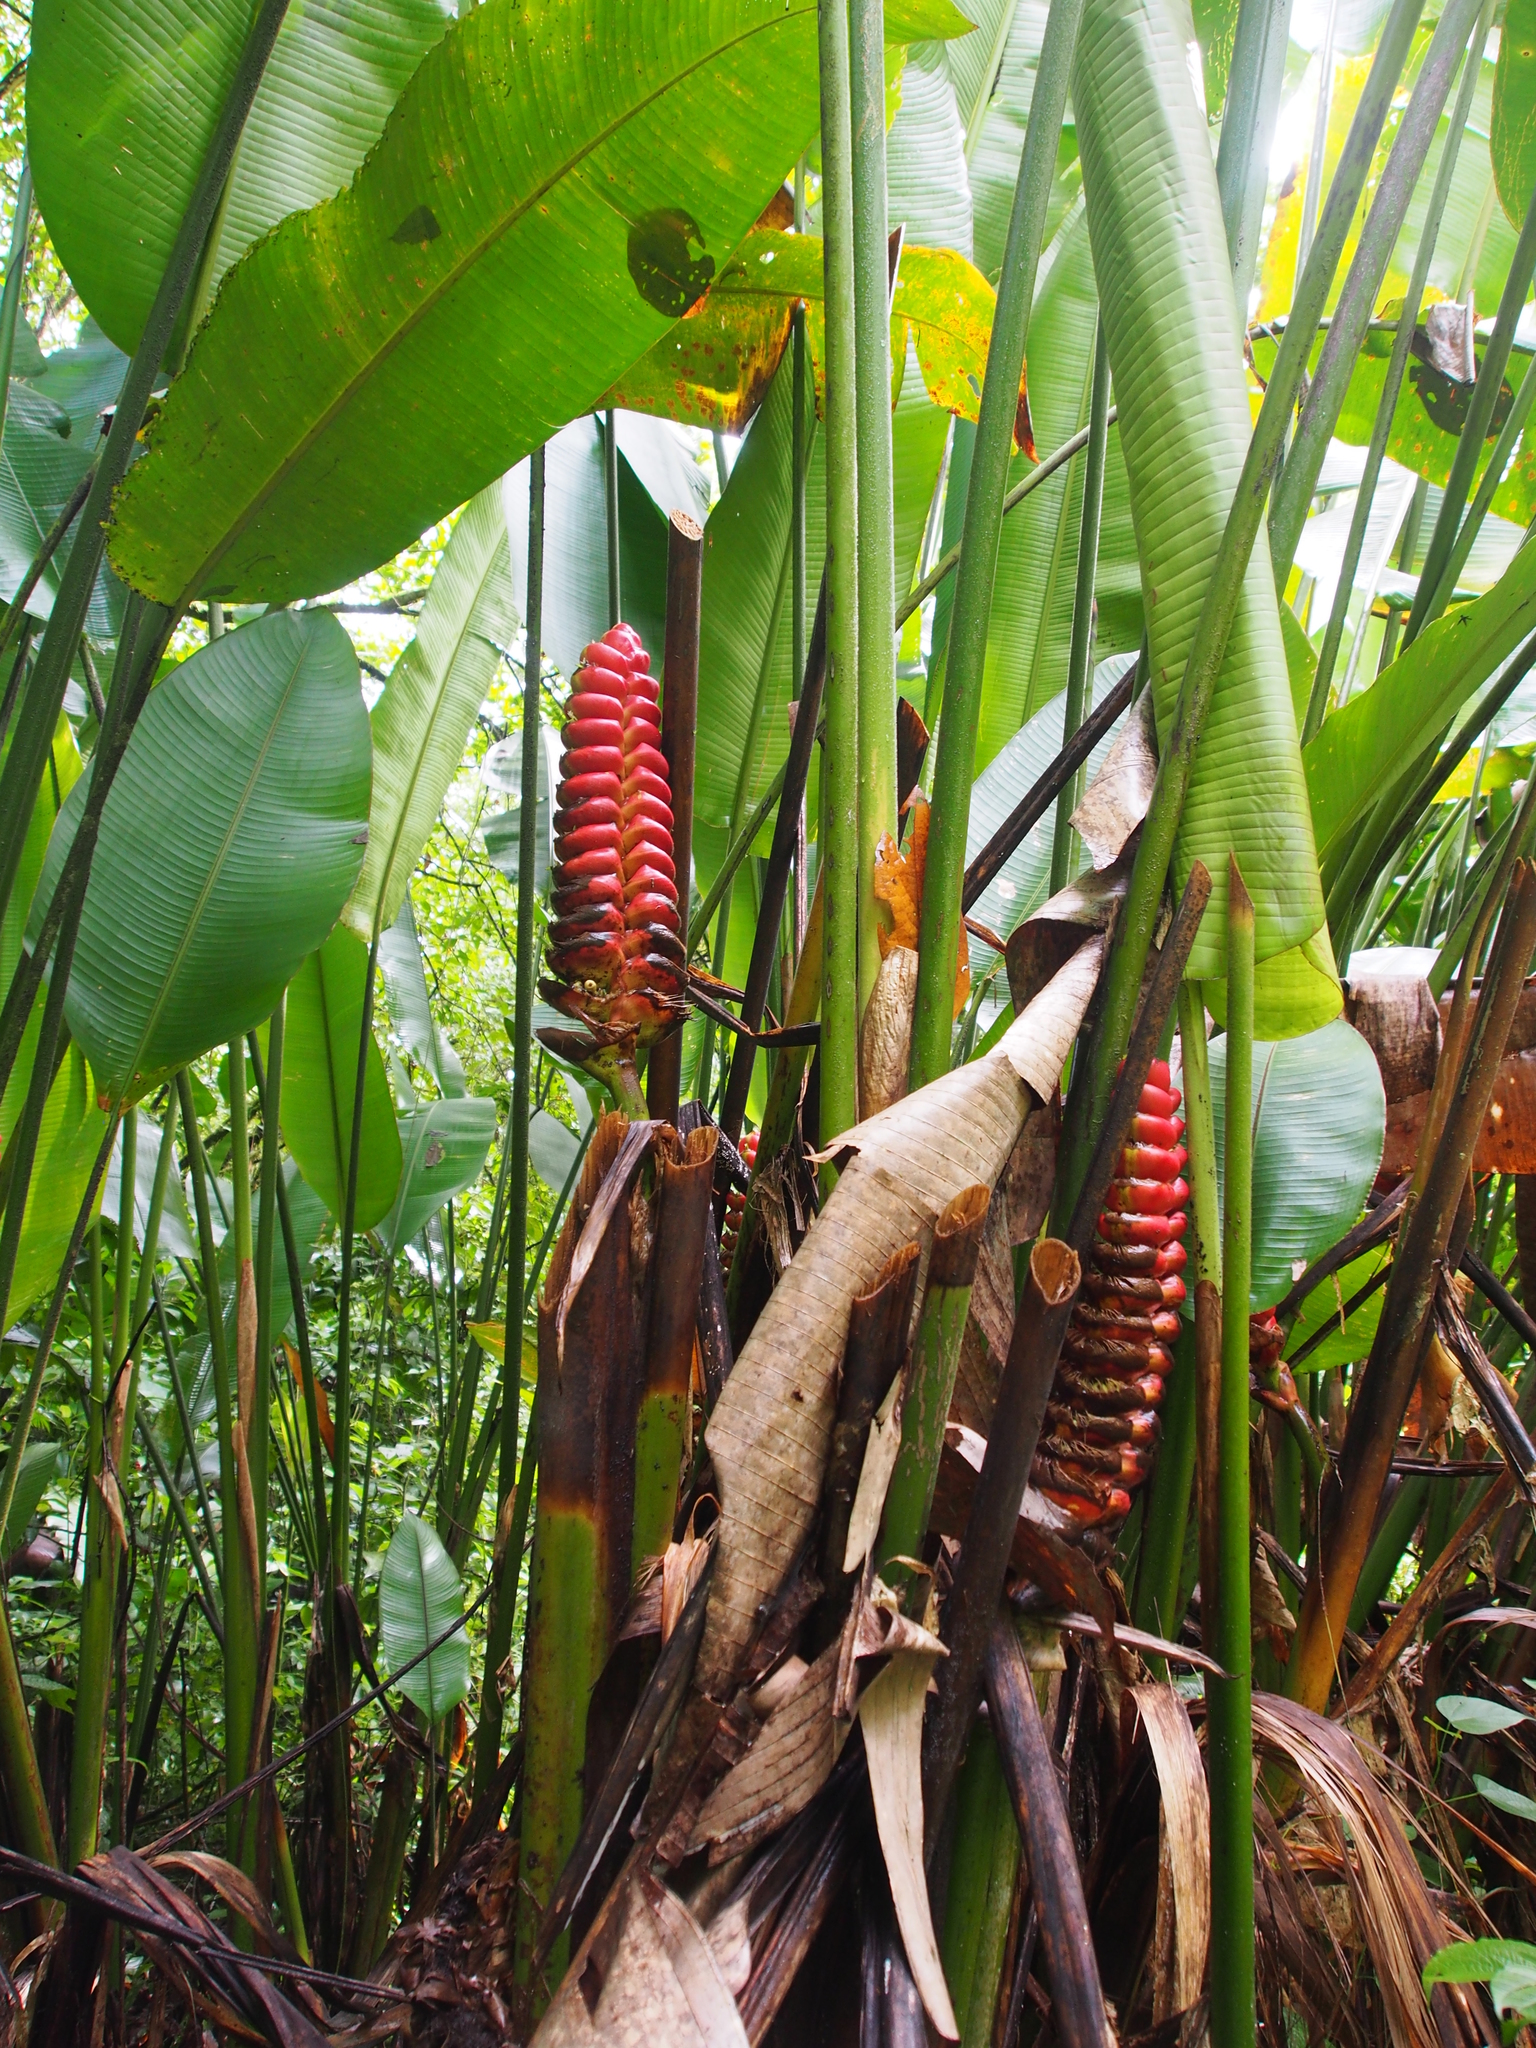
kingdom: Plantae
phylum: Tracheophyta
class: Liliopsida
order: Zingiberales
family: Heliconiaceae
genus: Heliconia
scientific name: Heliconia imbricata
